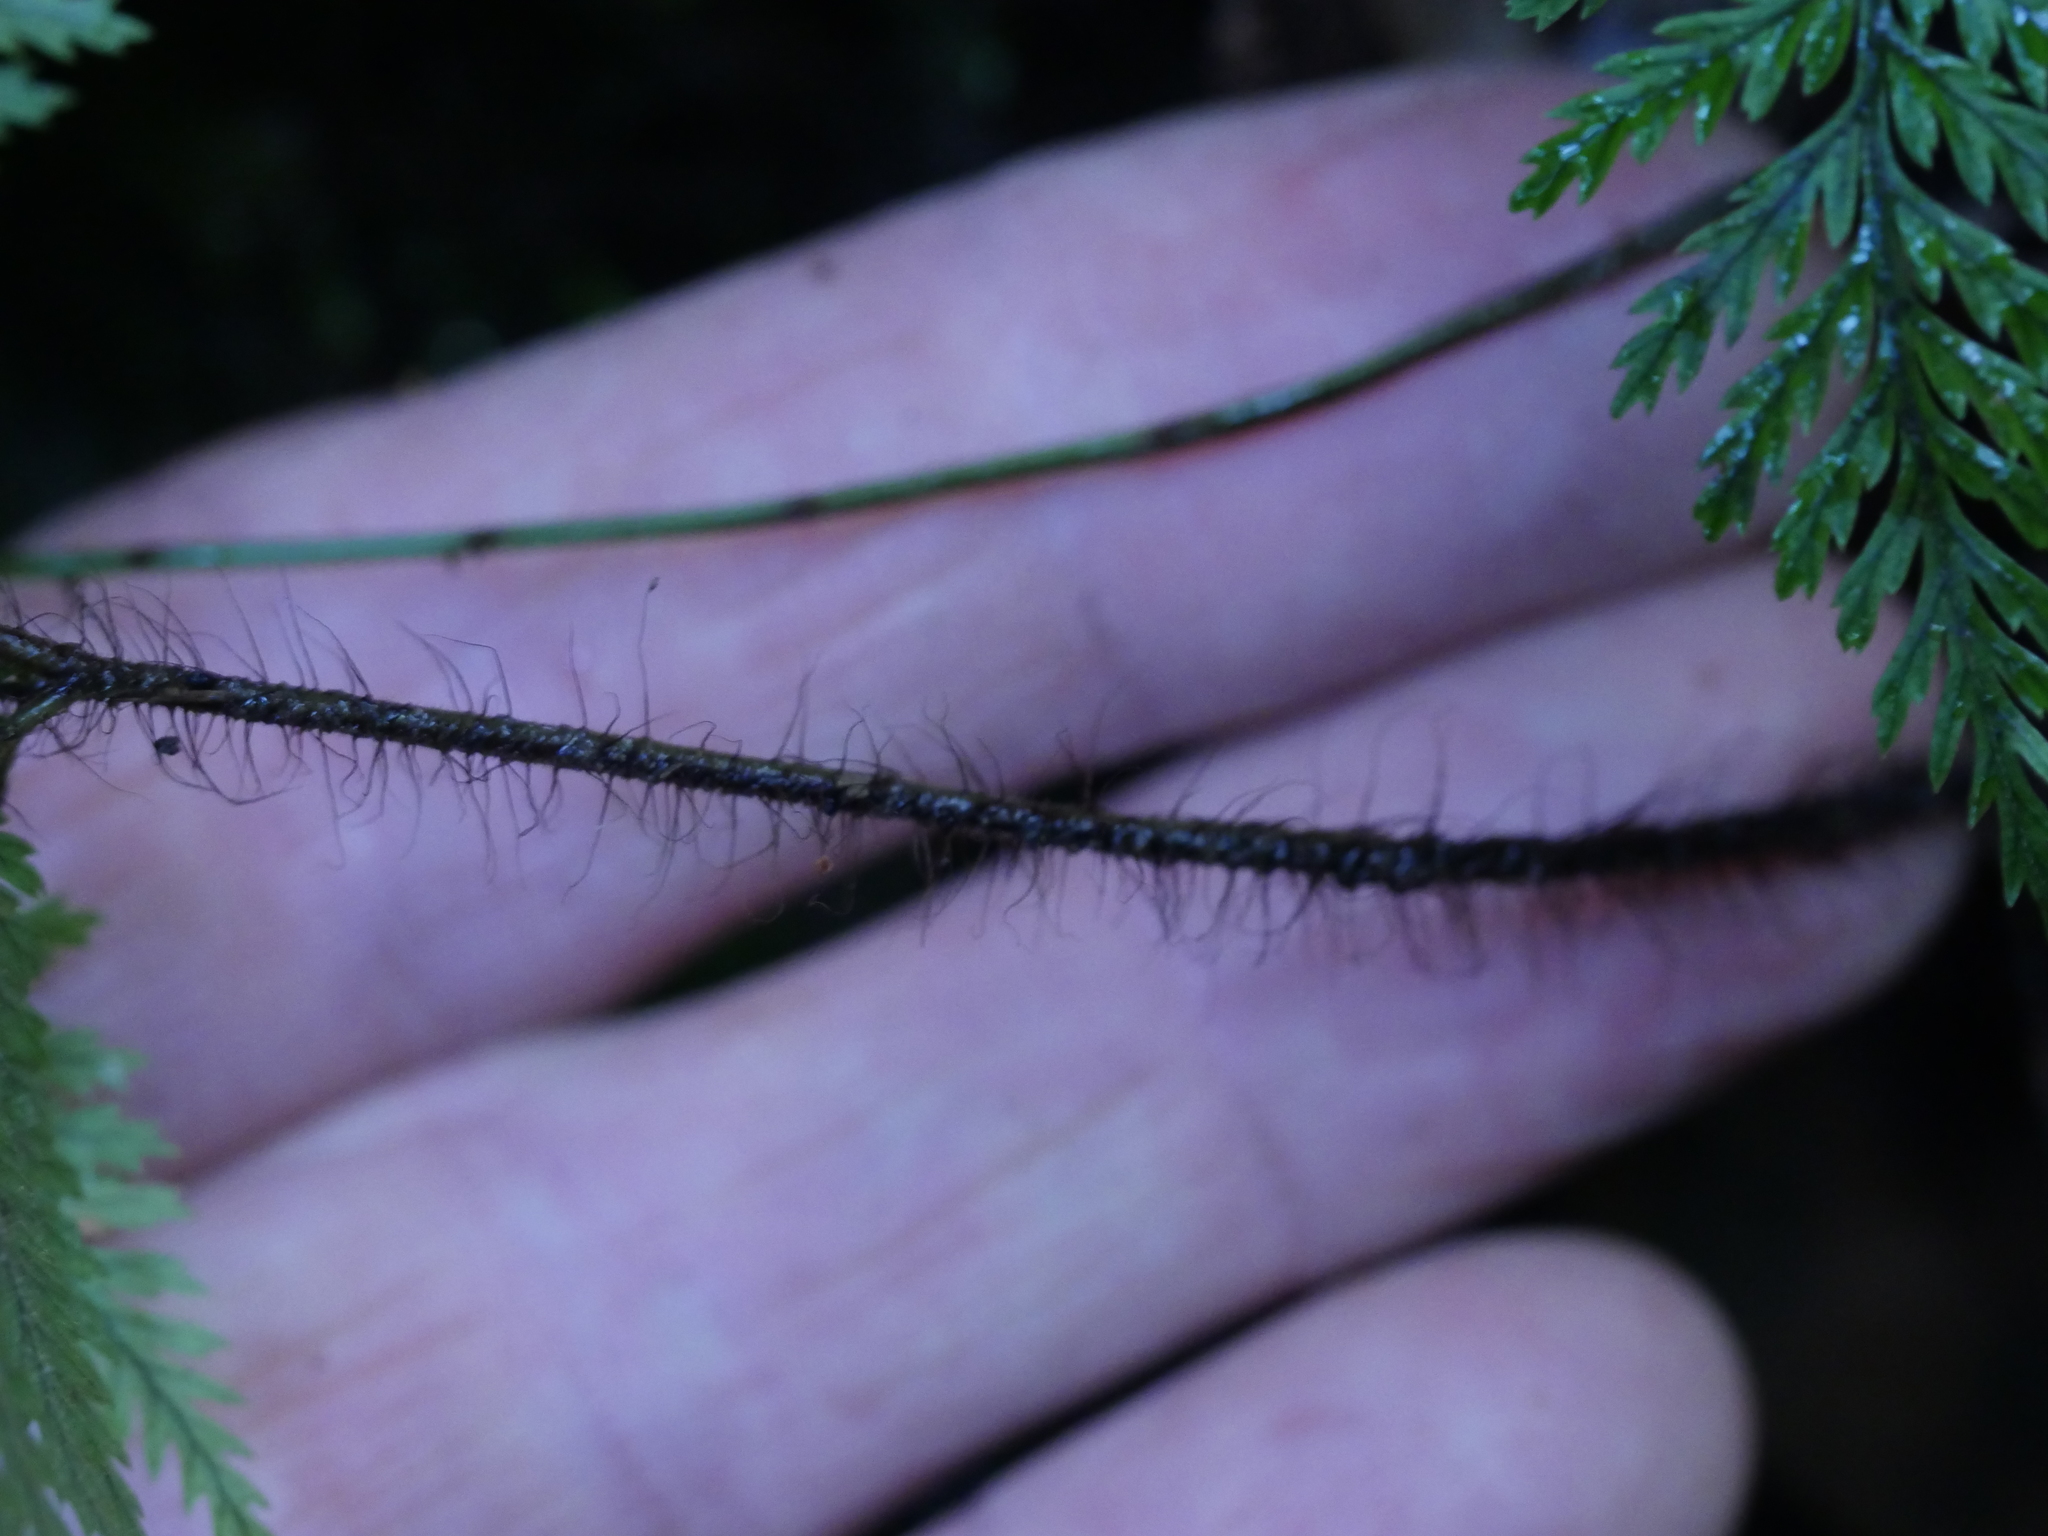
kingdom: Plantae
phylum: Tracheophyta
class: Polypodiopsida
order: Polypodiales
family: Dryopteridaceae
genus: Lastreopsis
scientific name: Lastreopsis hispida
